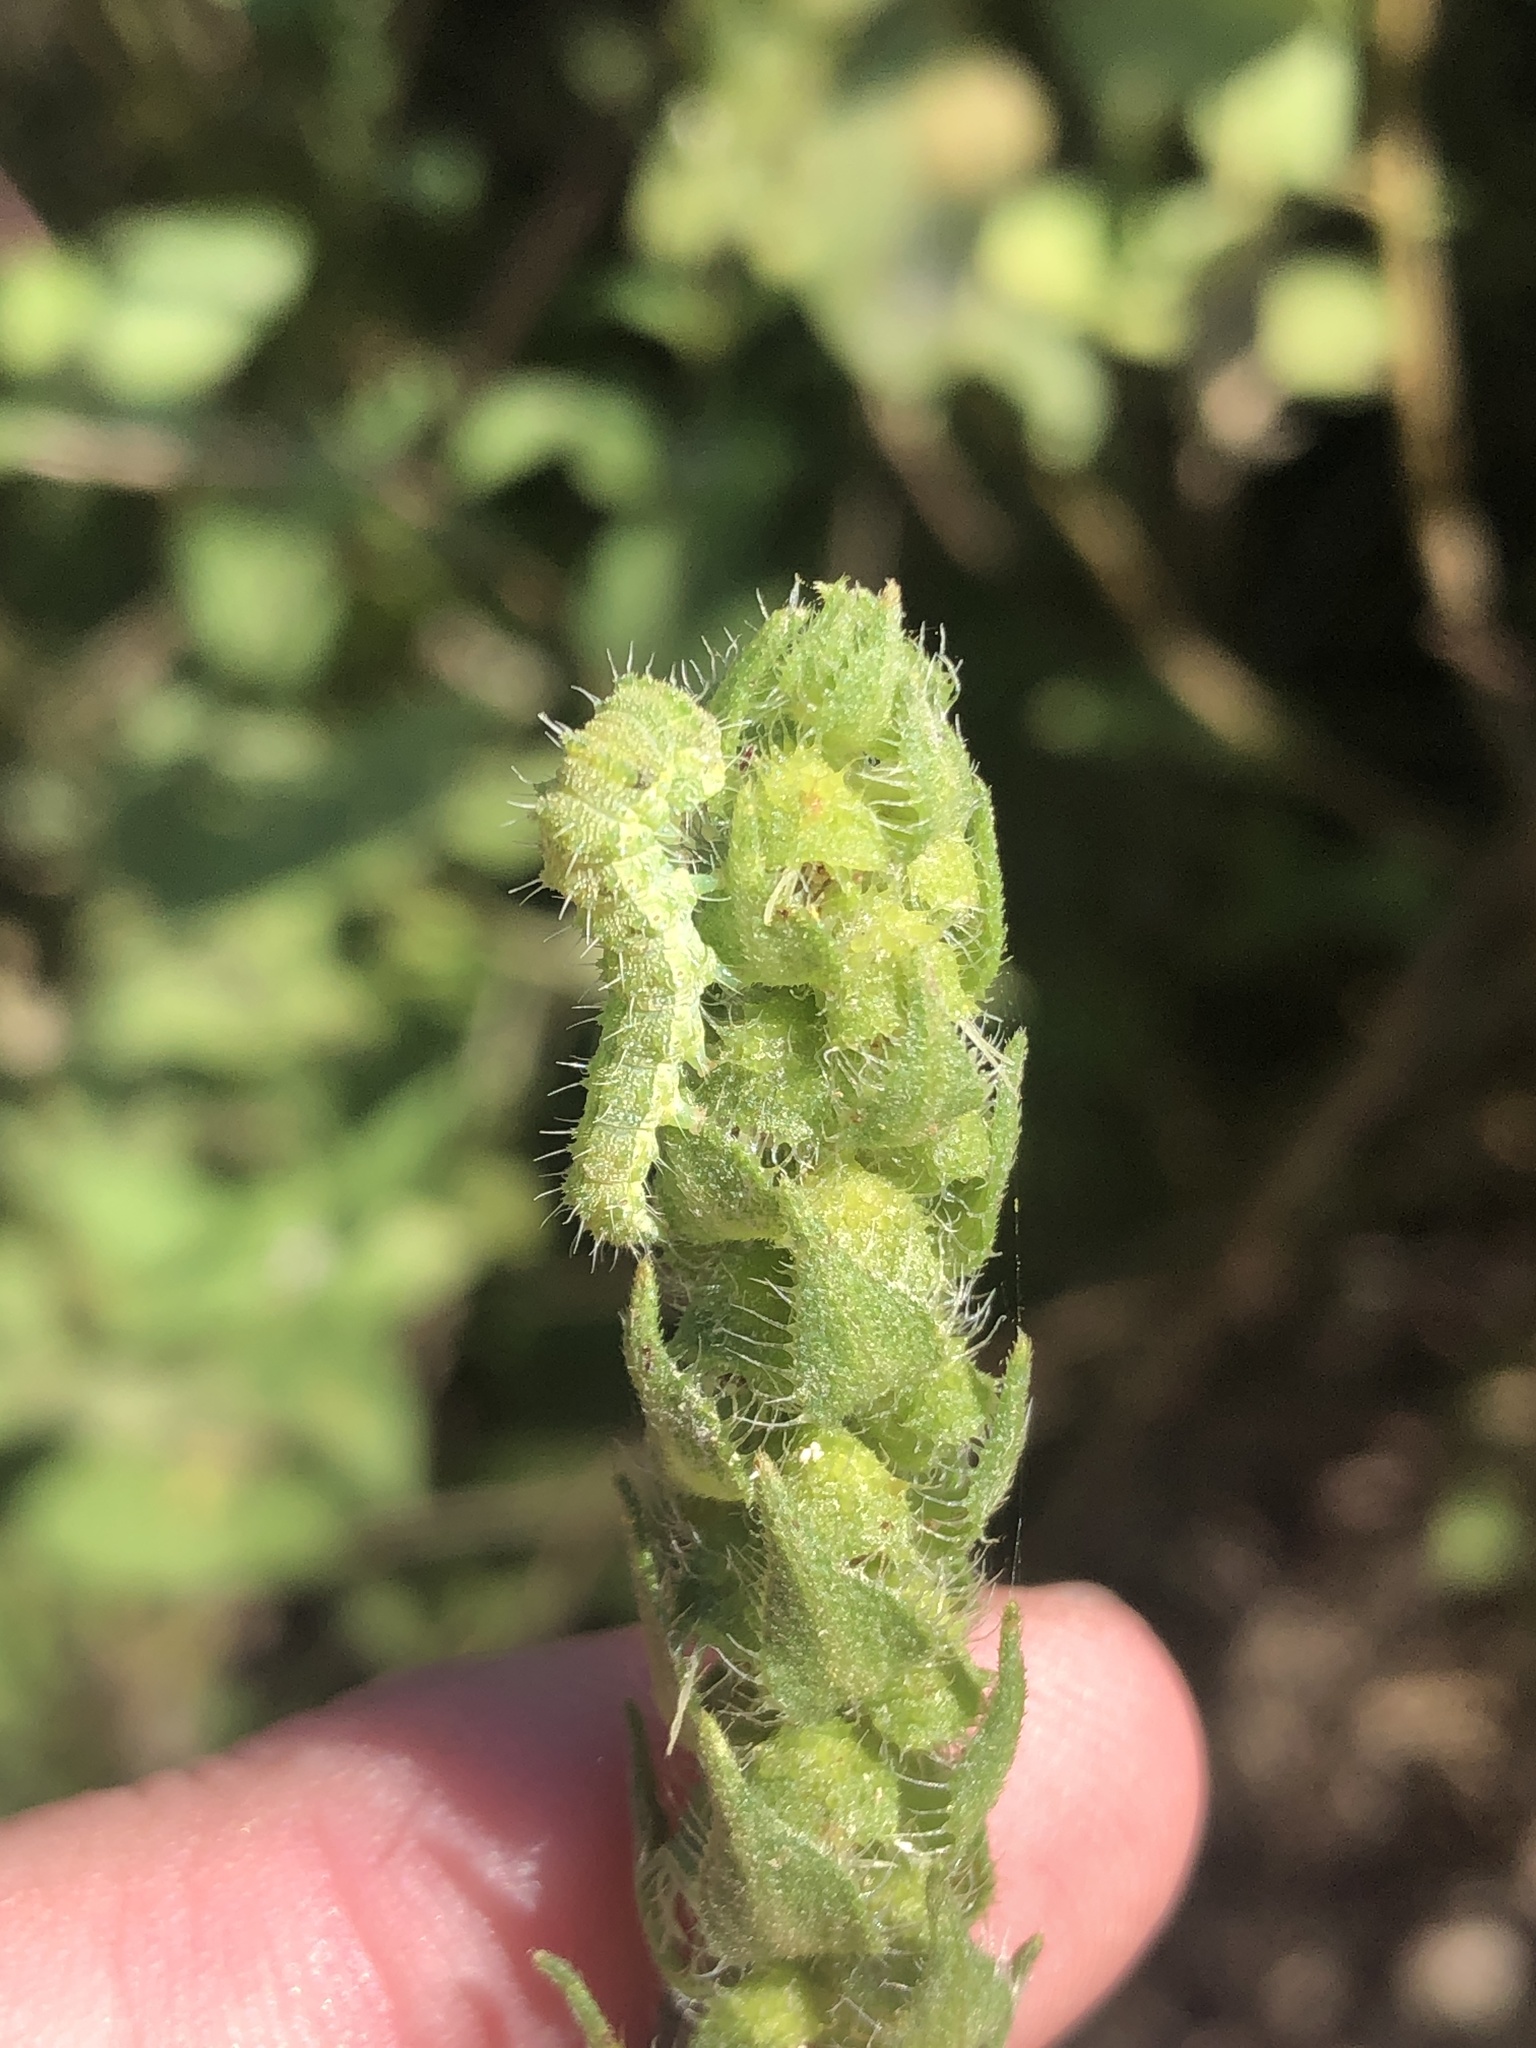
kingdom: Animalia
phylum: Arthropoda
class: Insecta
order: Lepidoptera
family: Noctuidae
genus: Schinia
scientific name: Schinia gracilenta
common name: Slender flower moth
